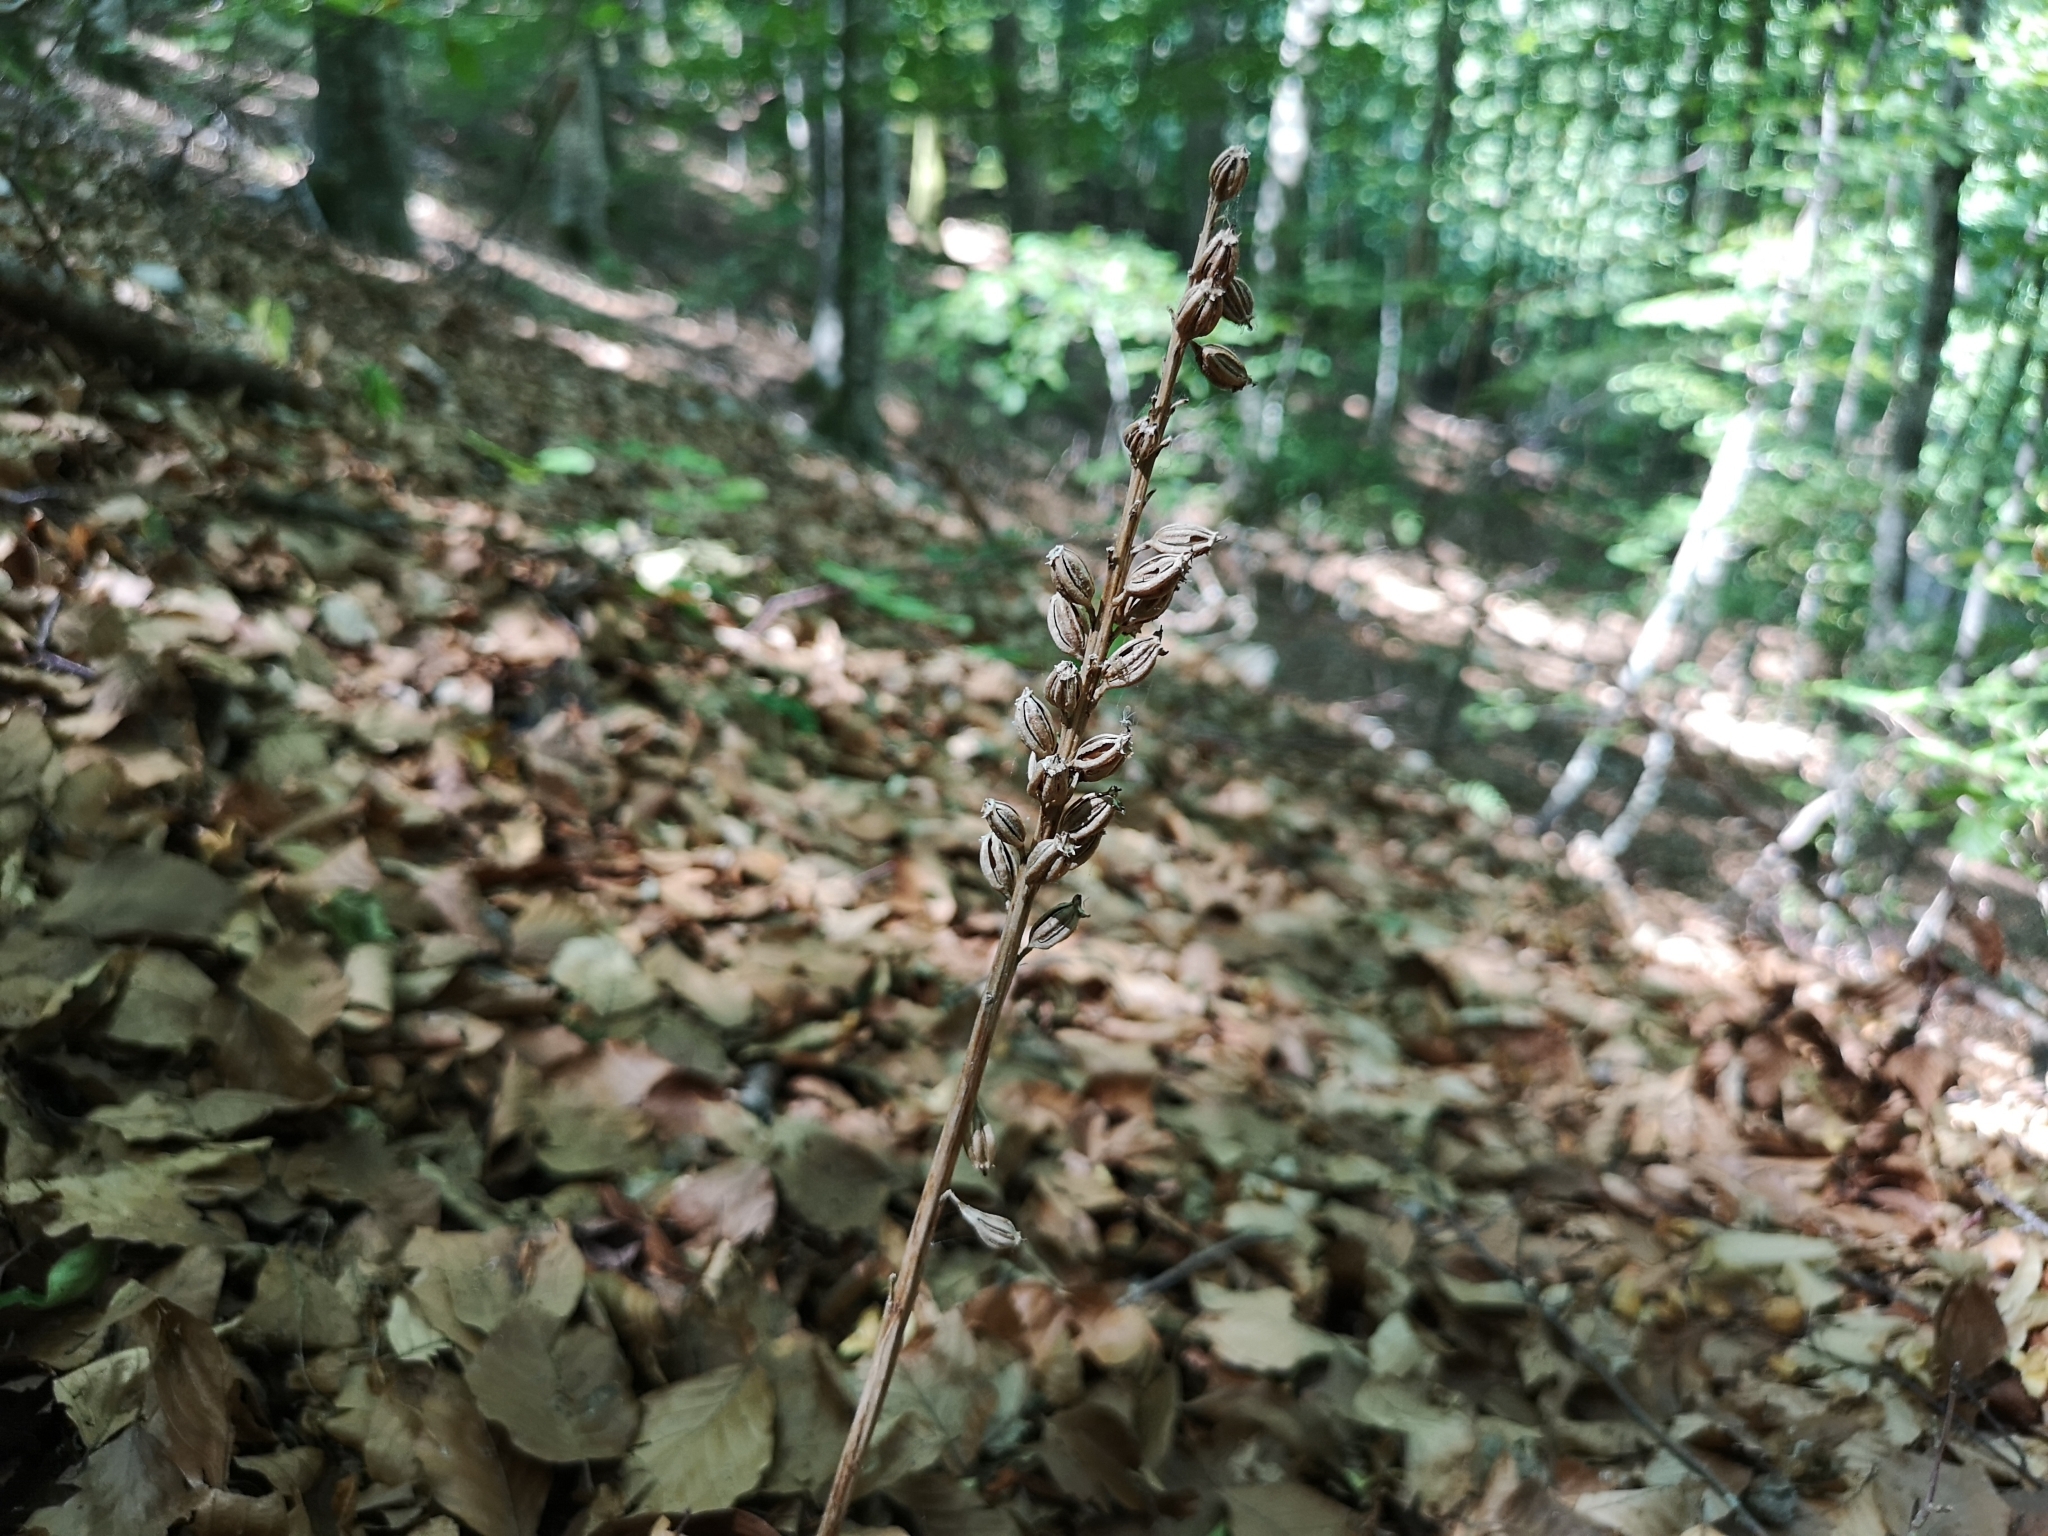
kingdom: Plantae
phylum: Tracheophyta
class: Liliopsida
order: Asparagales
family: Orchidaceae
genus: Neottia
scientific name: Neottia nidus-avis
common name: Bird's-nest orchid
